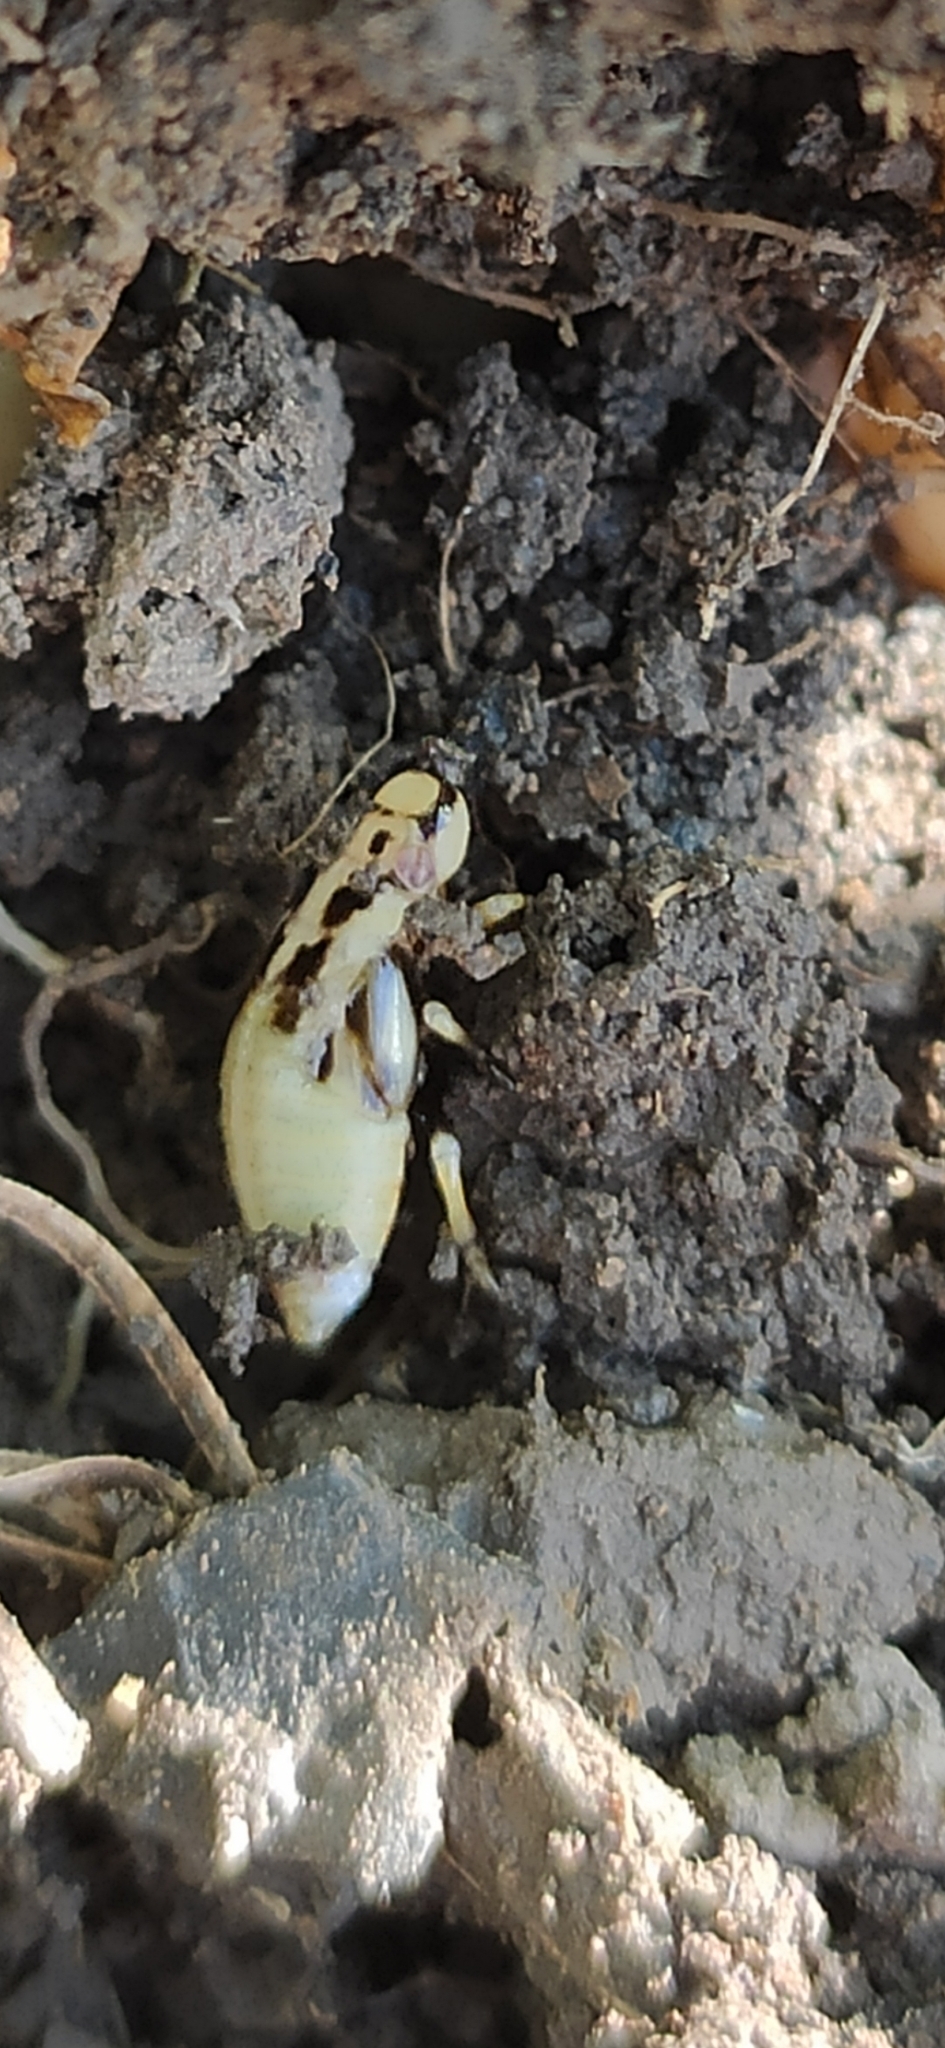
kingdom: Animalia
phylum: Arthropoda
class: Insecta
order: Hemiptera
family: Aphrophoridae
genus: Philaenus
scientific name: Philaenus spumarius
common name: Meadow spittlebug
